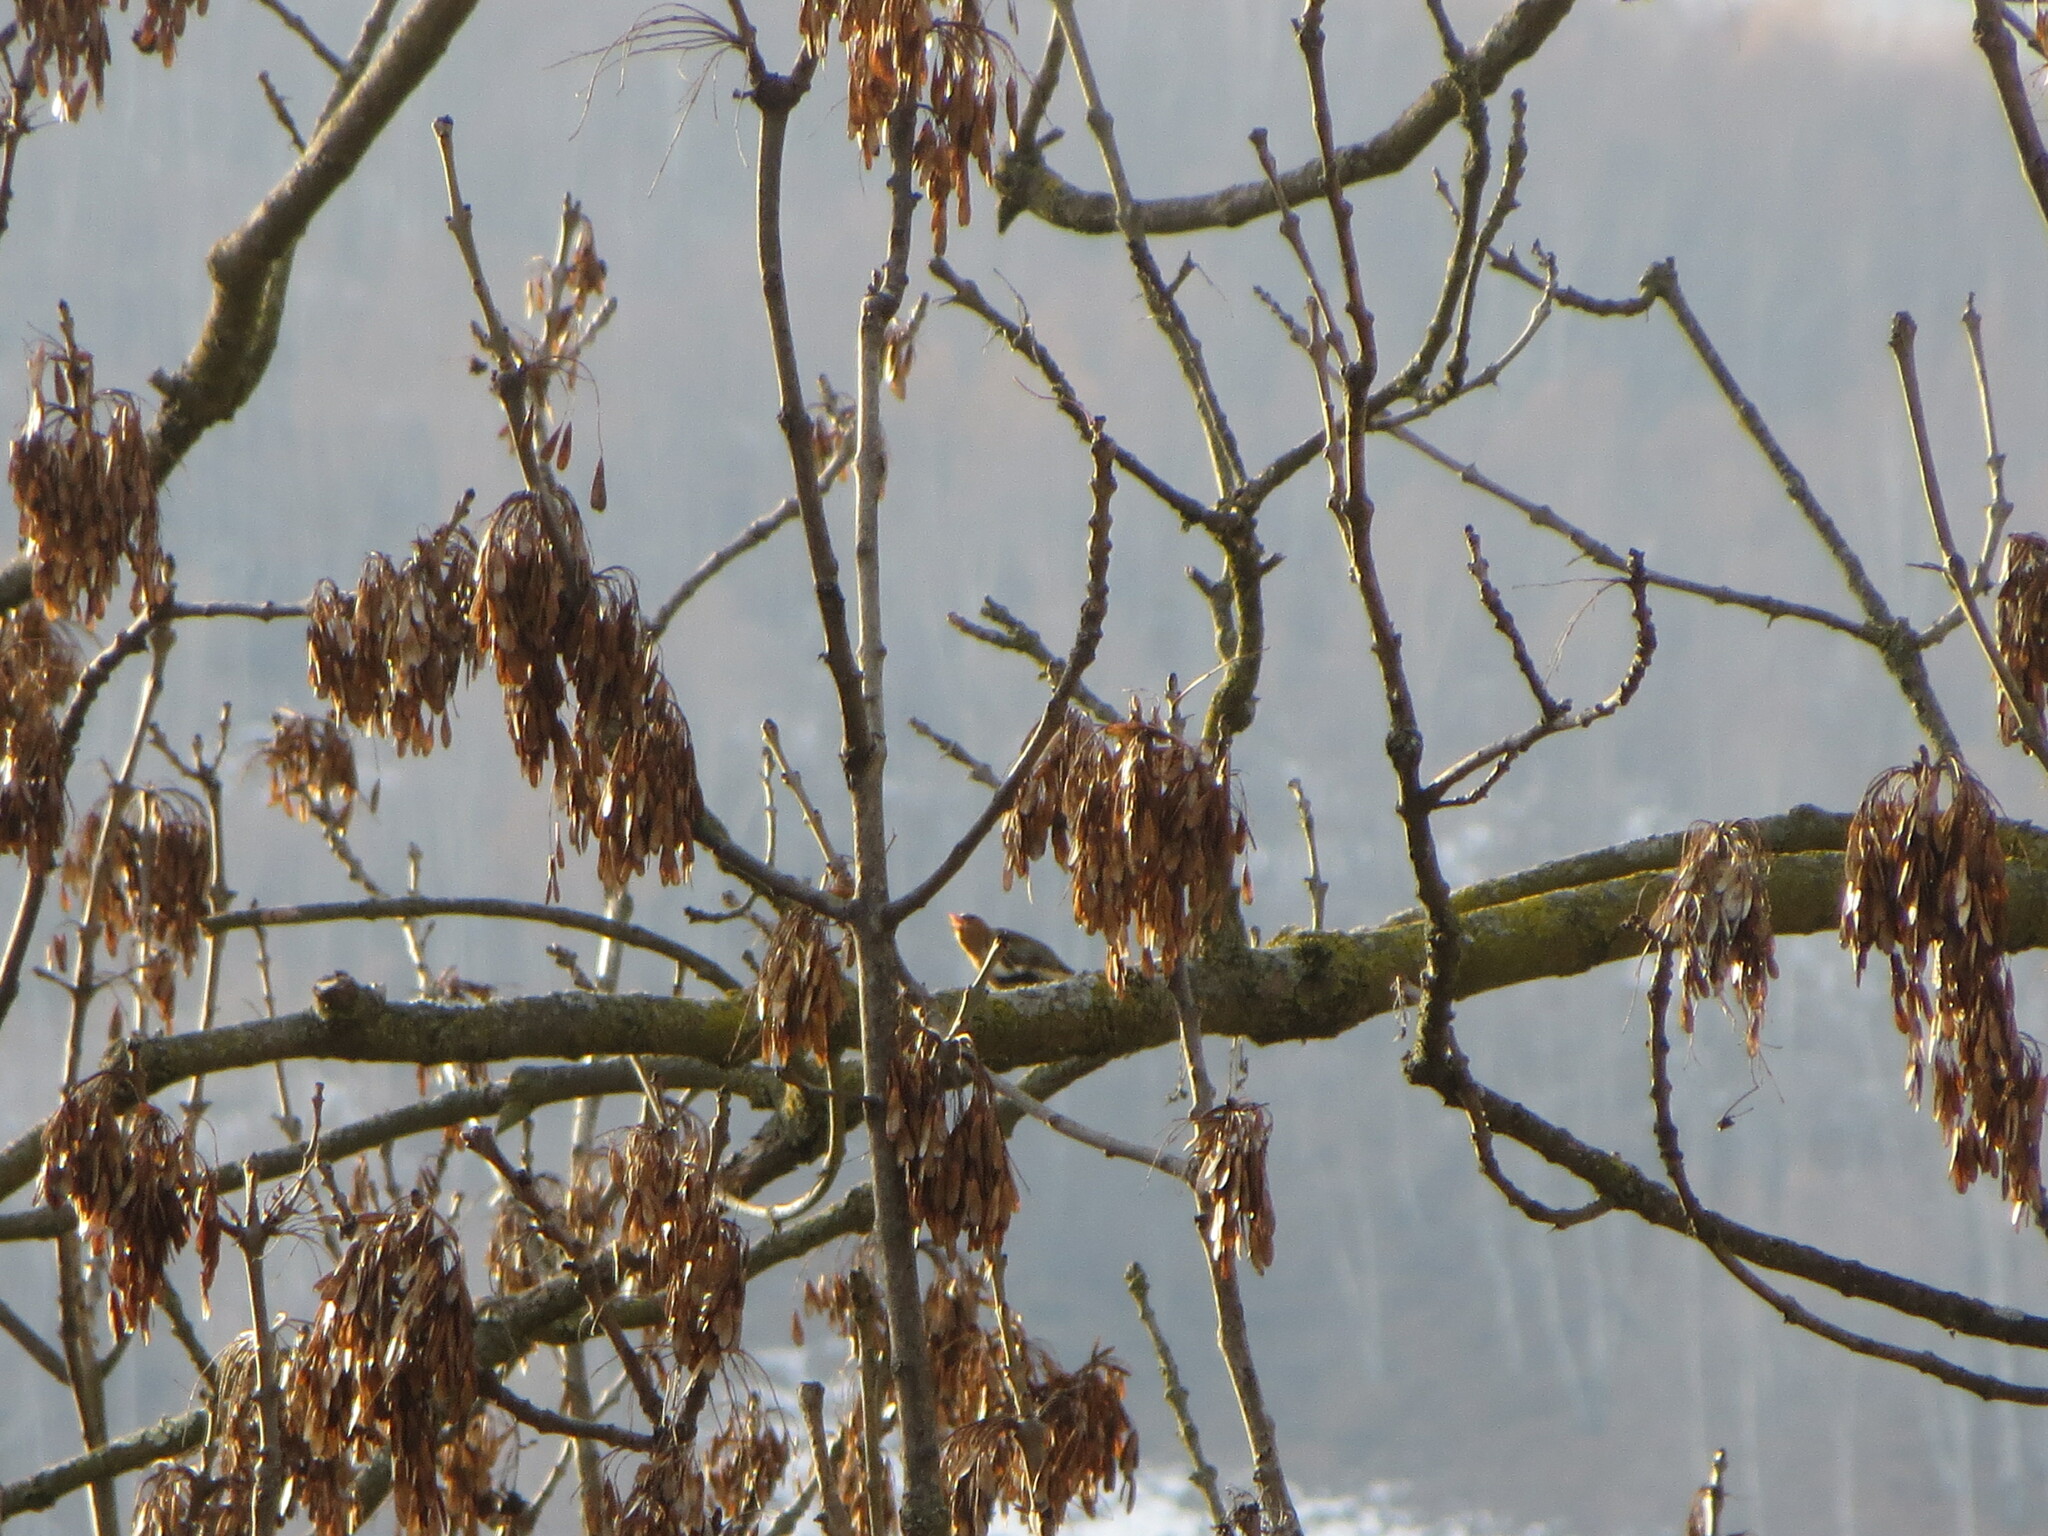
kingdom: Animalia
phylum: Chordata
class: Aves
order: Passeriformes
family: Fringillidae
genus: Fringilla
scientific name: Fringilla coelebs
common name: Common chaffinch
